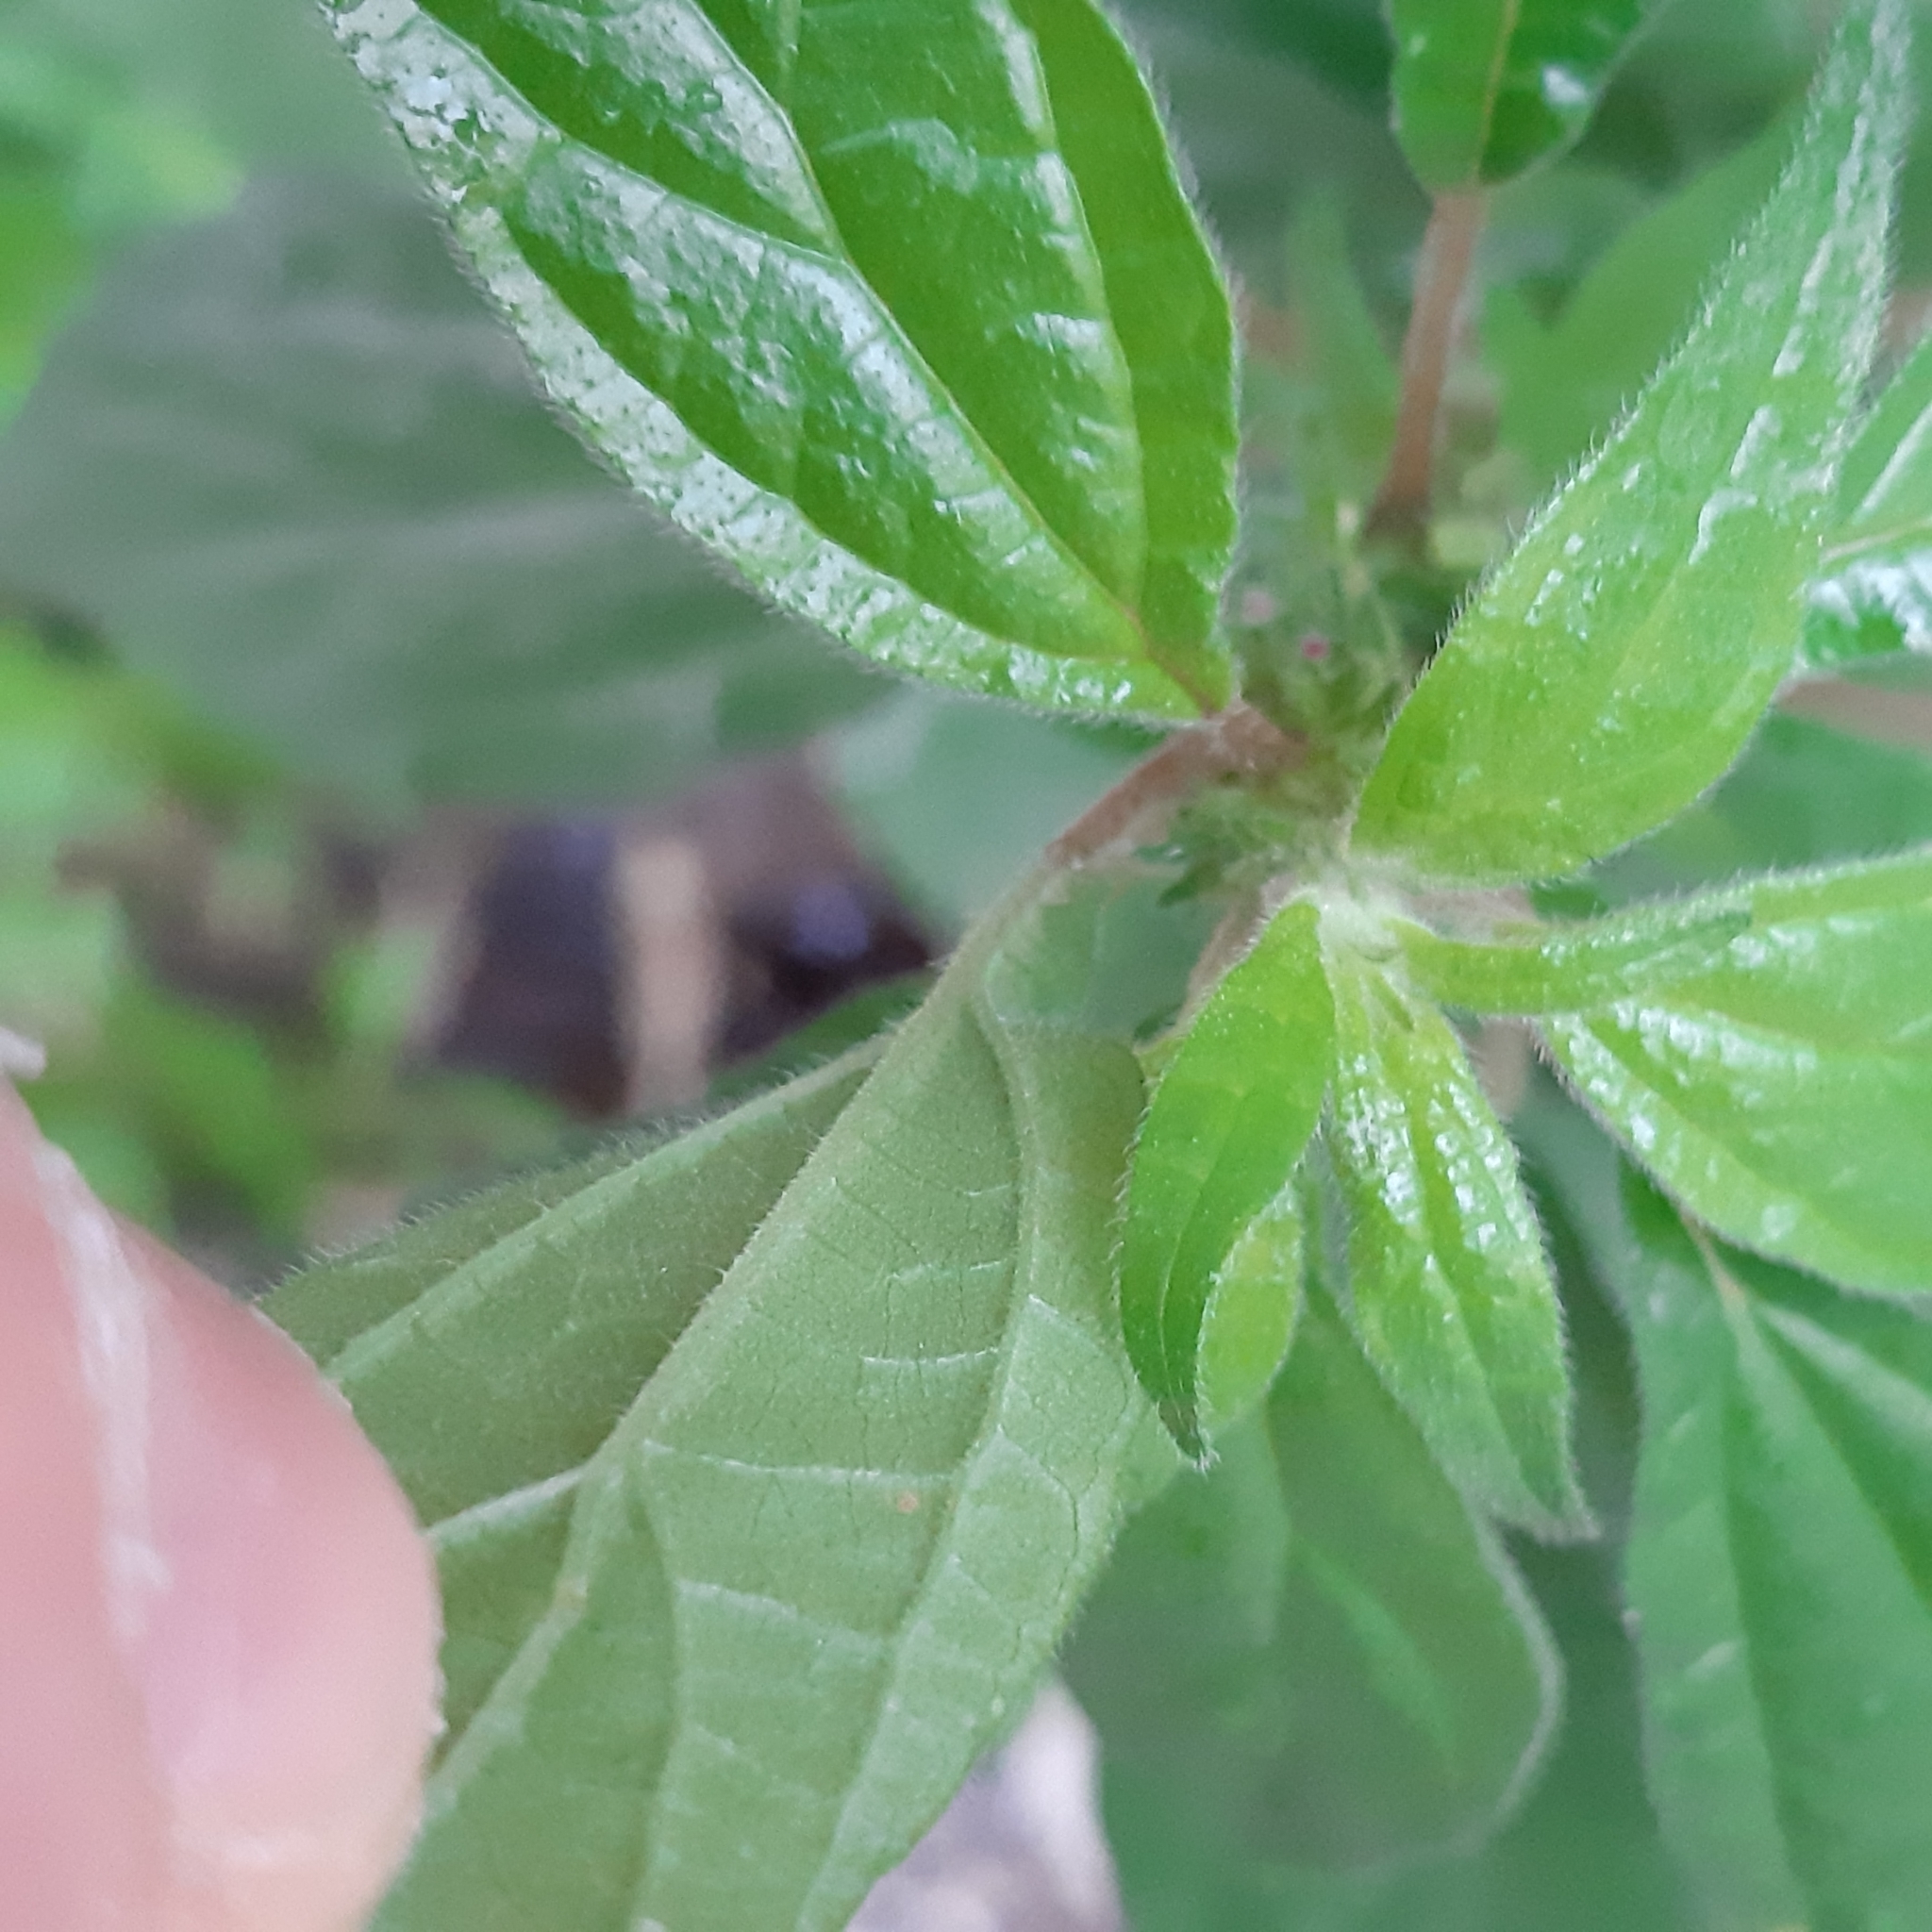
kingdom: Plantae
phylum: Tracheophyta
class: Magnoliopsida
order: Rosales
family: Urticaceae
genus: Parietaria
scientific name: Parietaria judaica
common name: Pellitory-of-the-wall
